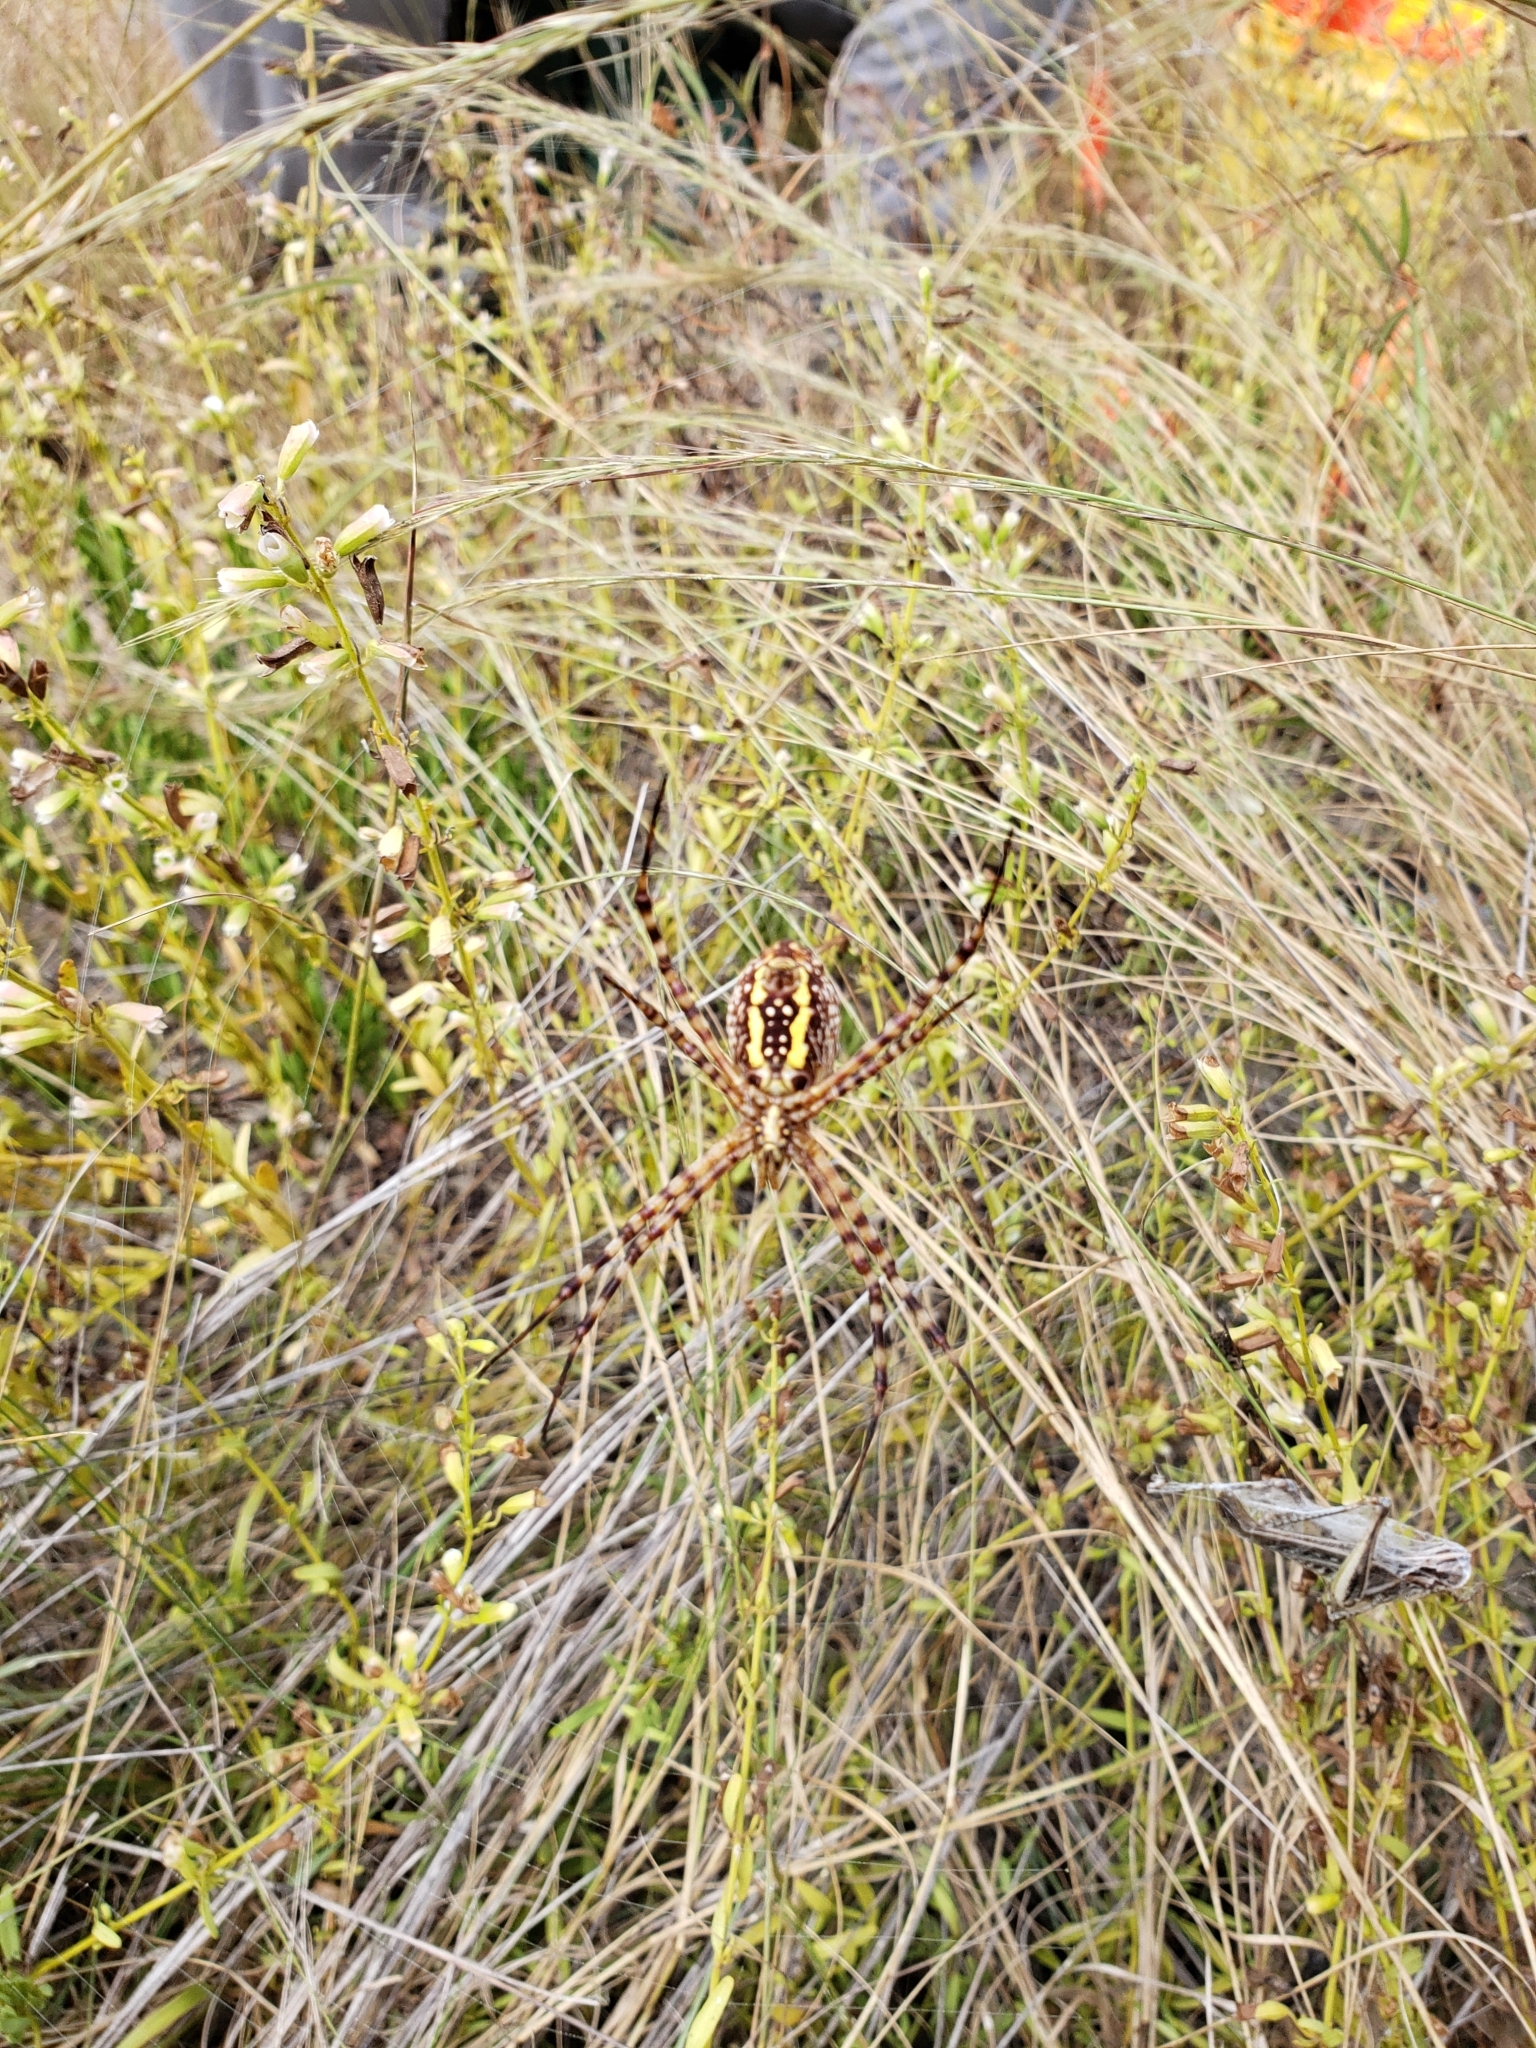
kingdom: Animalia
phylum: Arthropoda
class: Arachnida
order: Araneae
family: Araneidae
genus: Argiope
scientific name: Argiope trifasciata
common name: Banded garden spider
